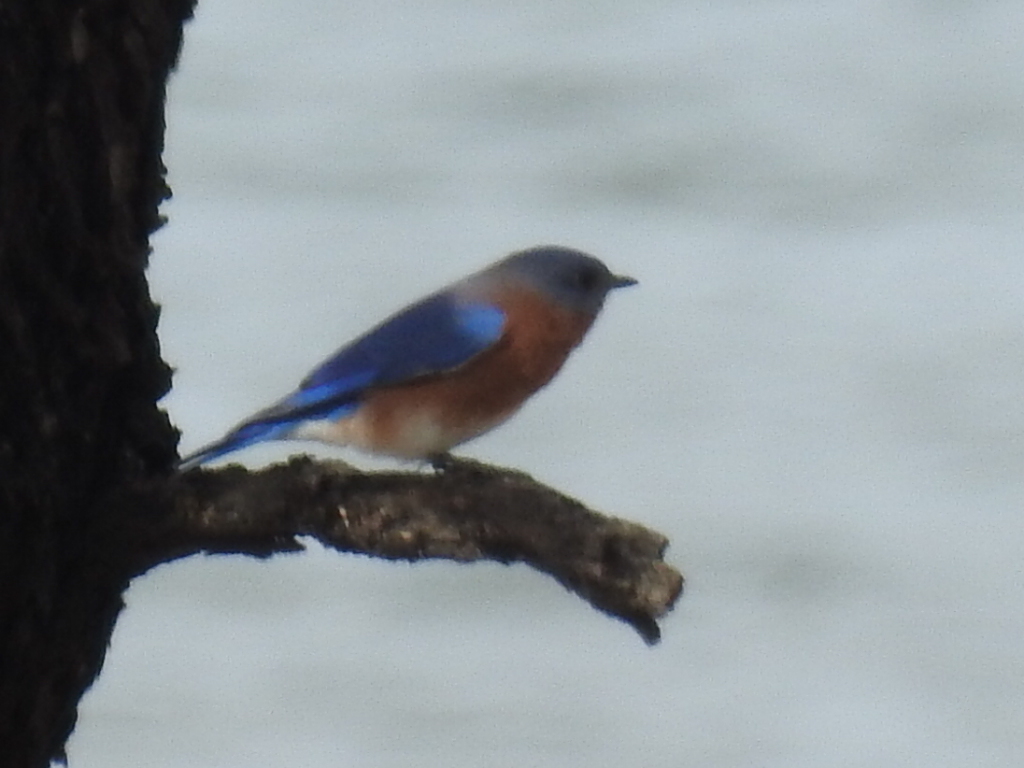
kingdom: Animalia
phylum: Chordata
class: Aves
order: Passeriformes
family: Turdidae
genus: Sialia
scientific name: Sialia sialis
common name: Eastern bluebird
